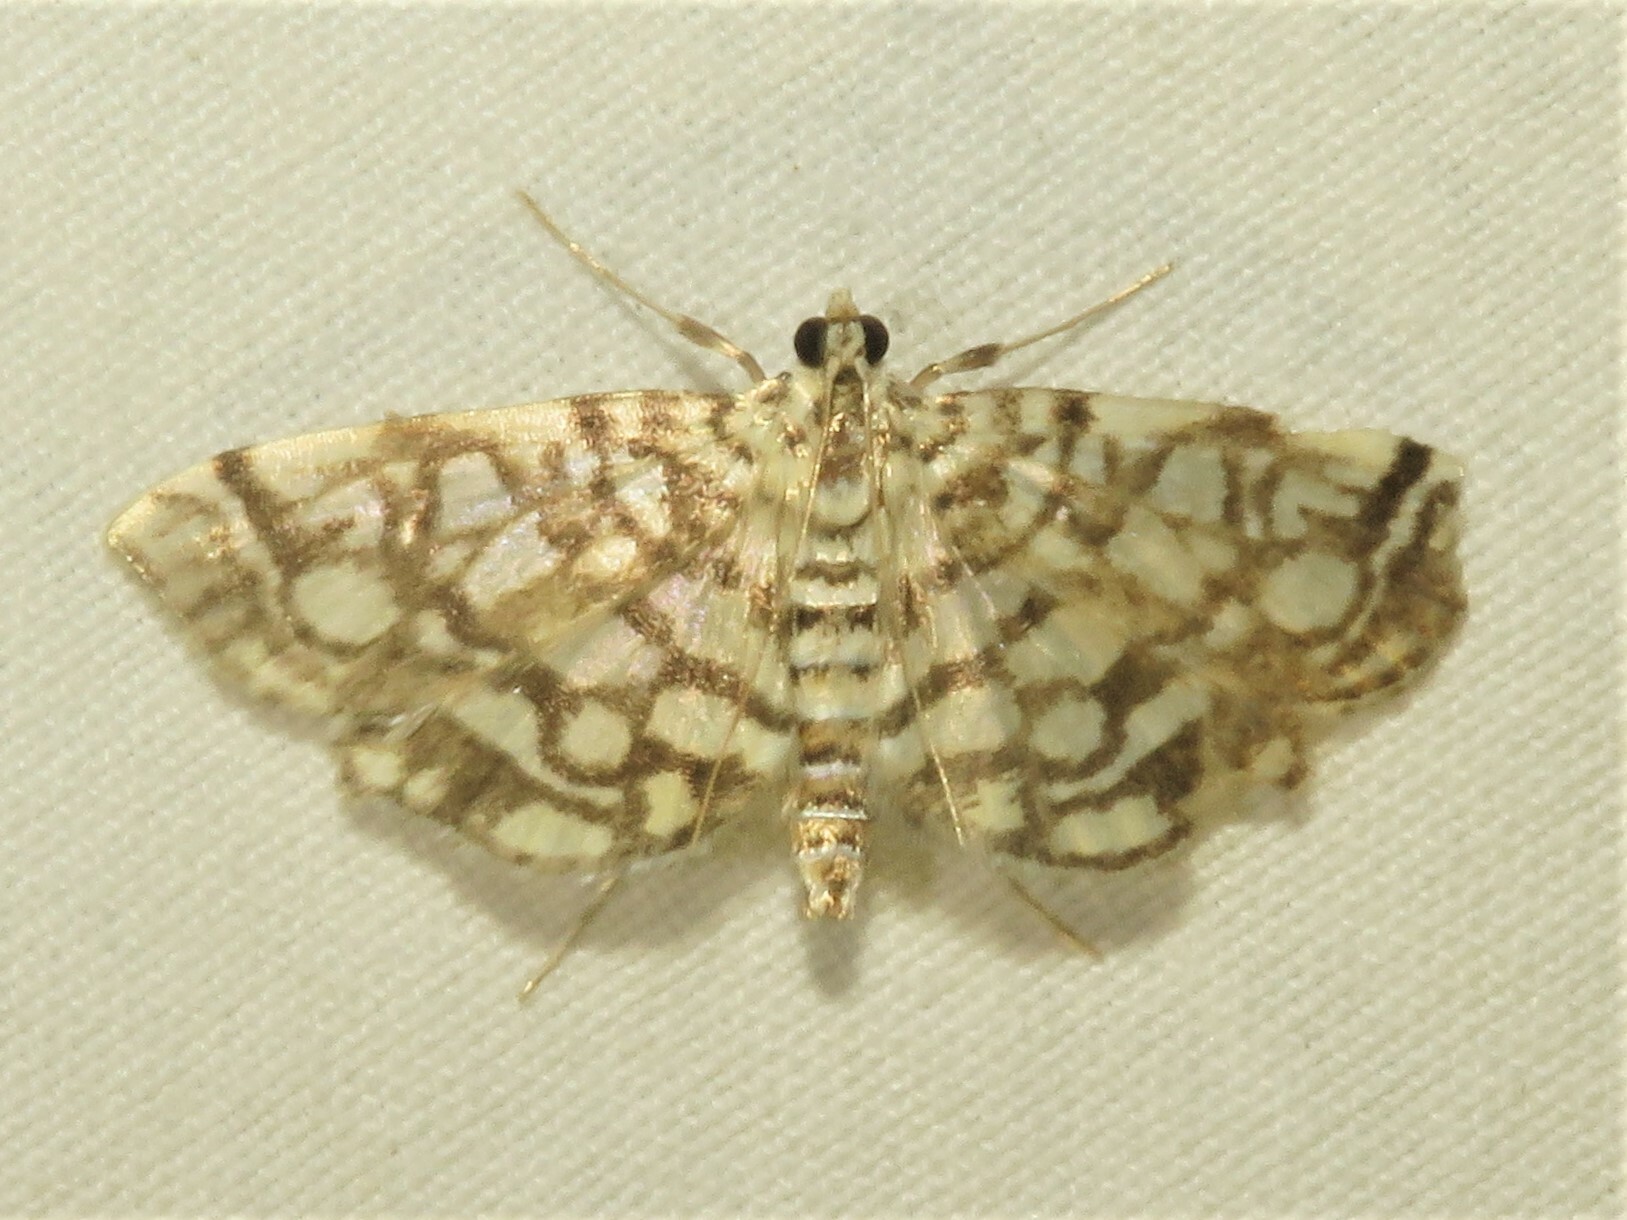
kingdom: Animalia
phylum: Arthropoda
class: Insecta
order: Lepidoptera
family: Crambidae
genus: Lygropia
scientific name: Lygropia rivulalis
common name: Bog lygropia moth
